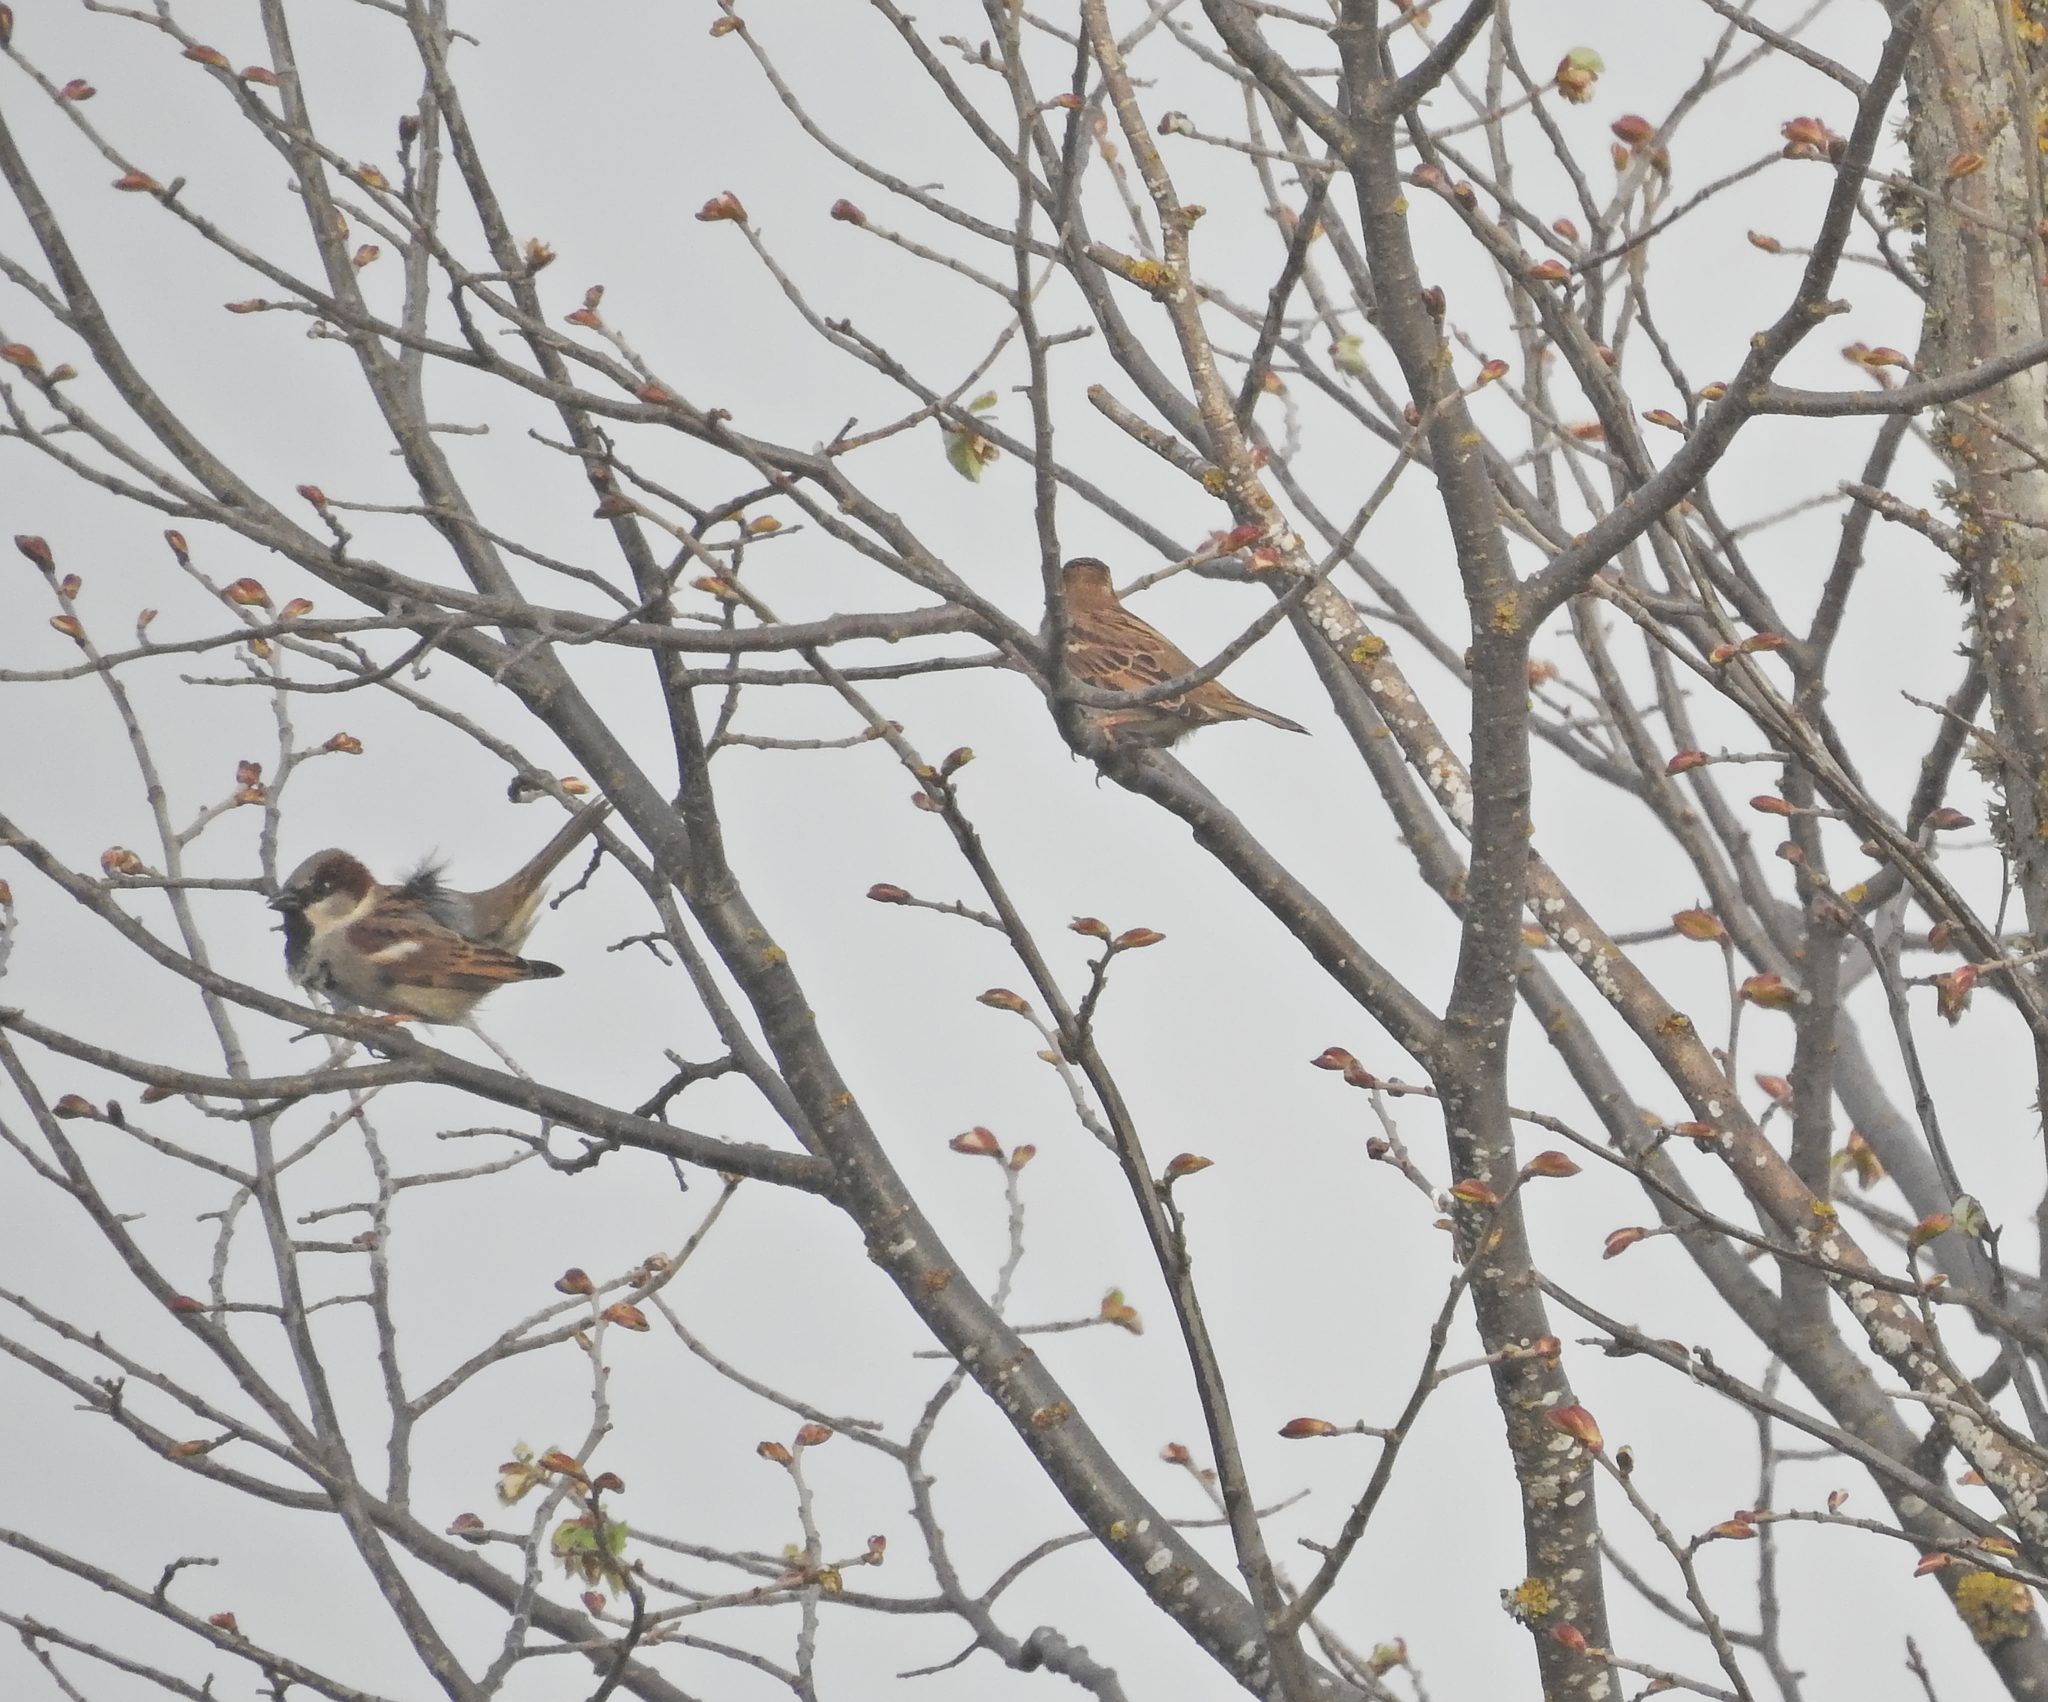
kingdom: Animalia
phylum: Chordata
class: Aves
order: Passeriformes
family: Passeridae
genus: Passer
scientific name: Passer domesticus
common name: House sparrow
